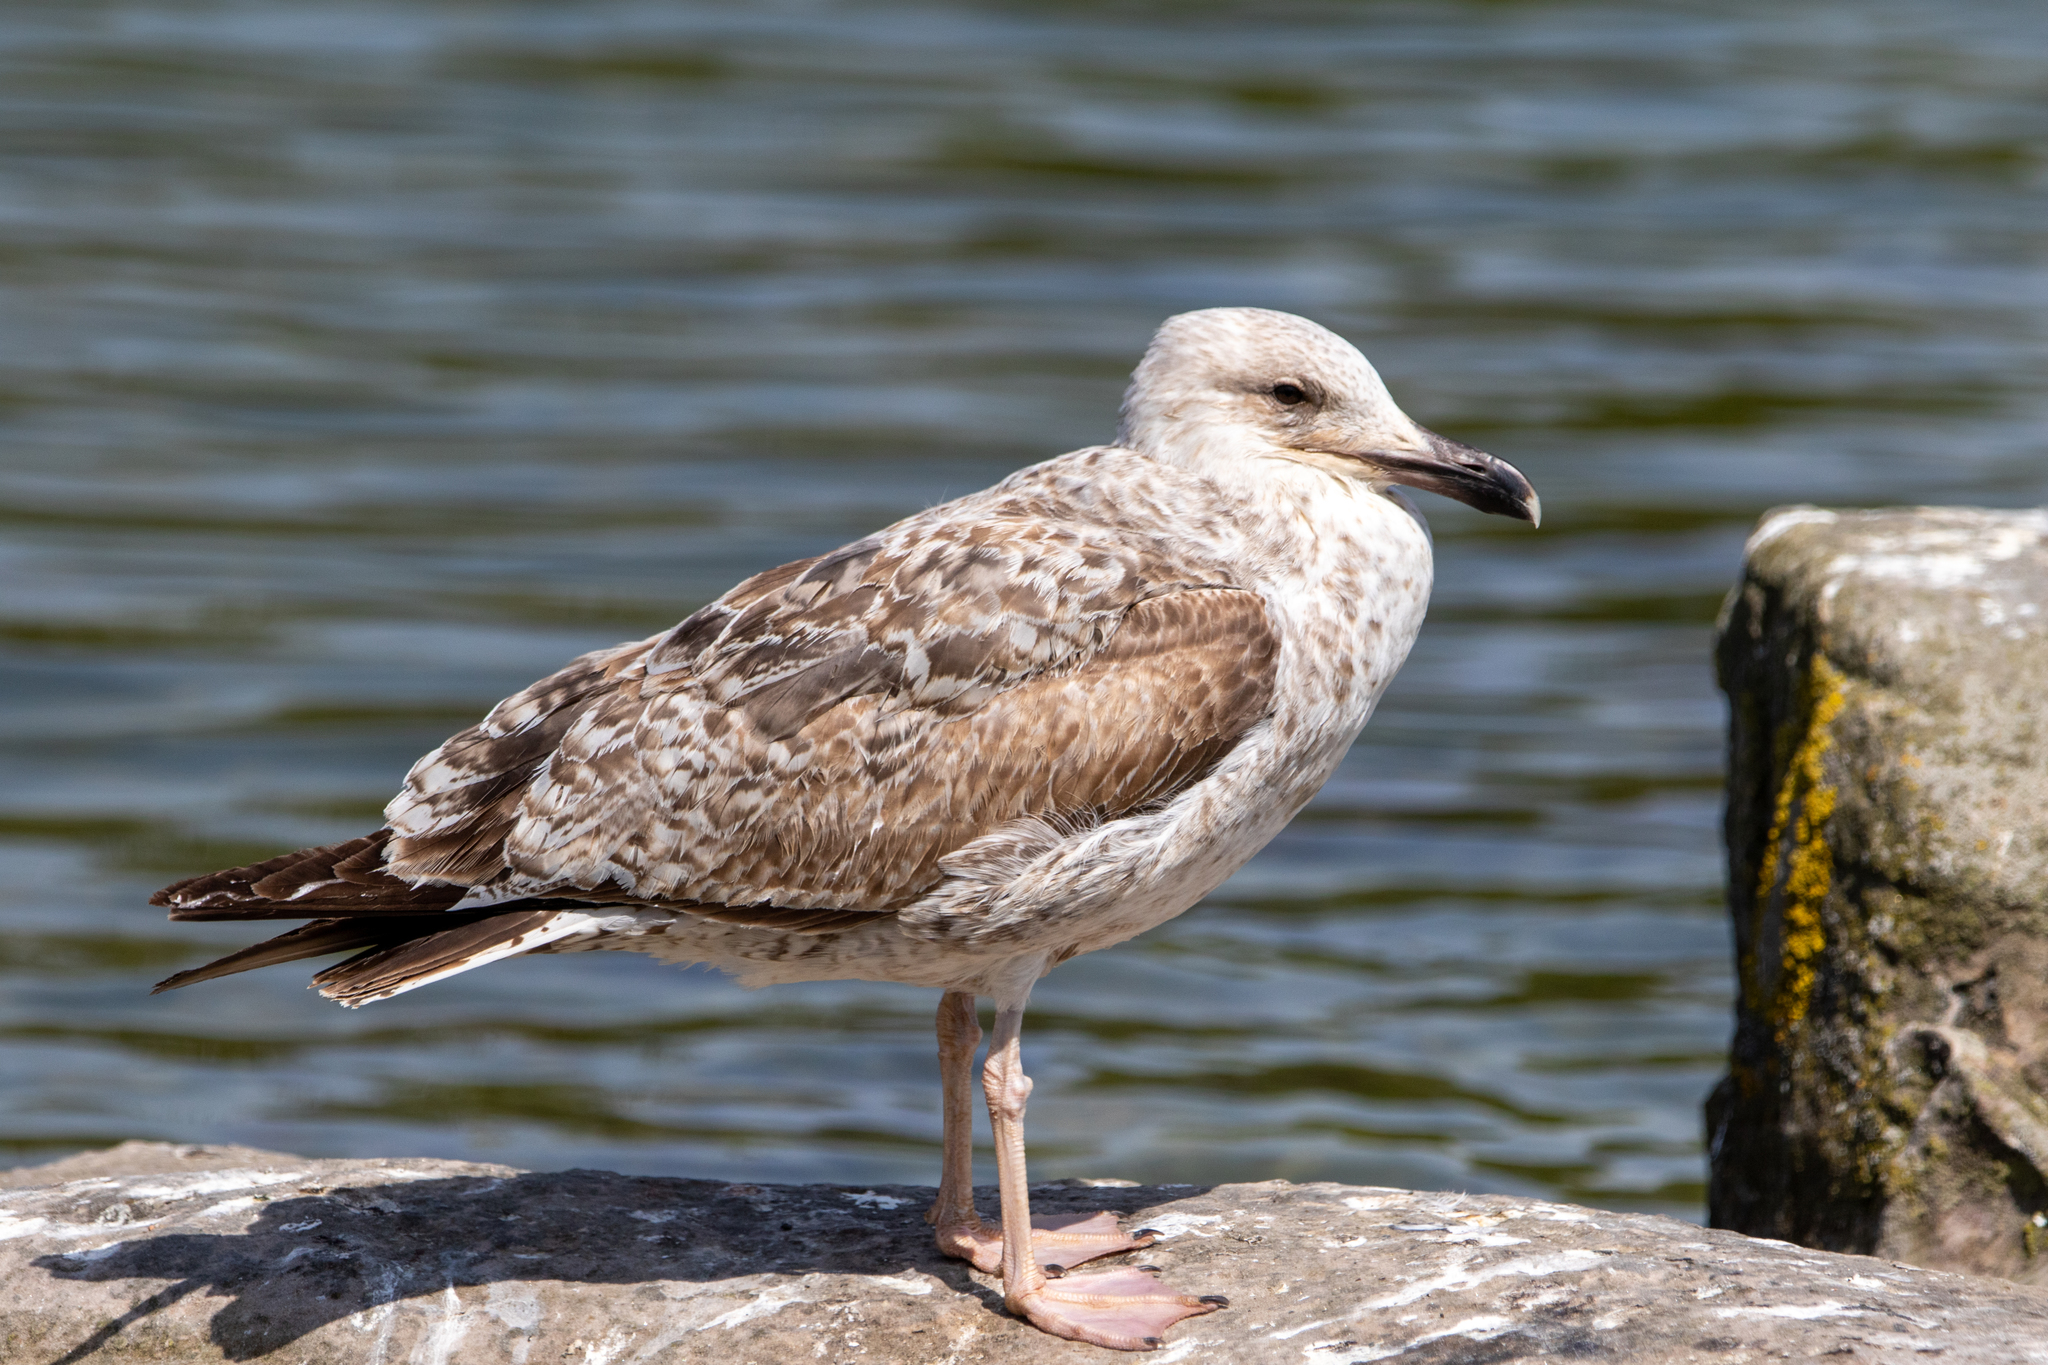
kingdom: Animalia
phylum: Chordata
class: Aves
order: Charadriiformes
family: Laridae
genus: Larus
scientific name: Larus cachinnans
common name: Caspian gull
